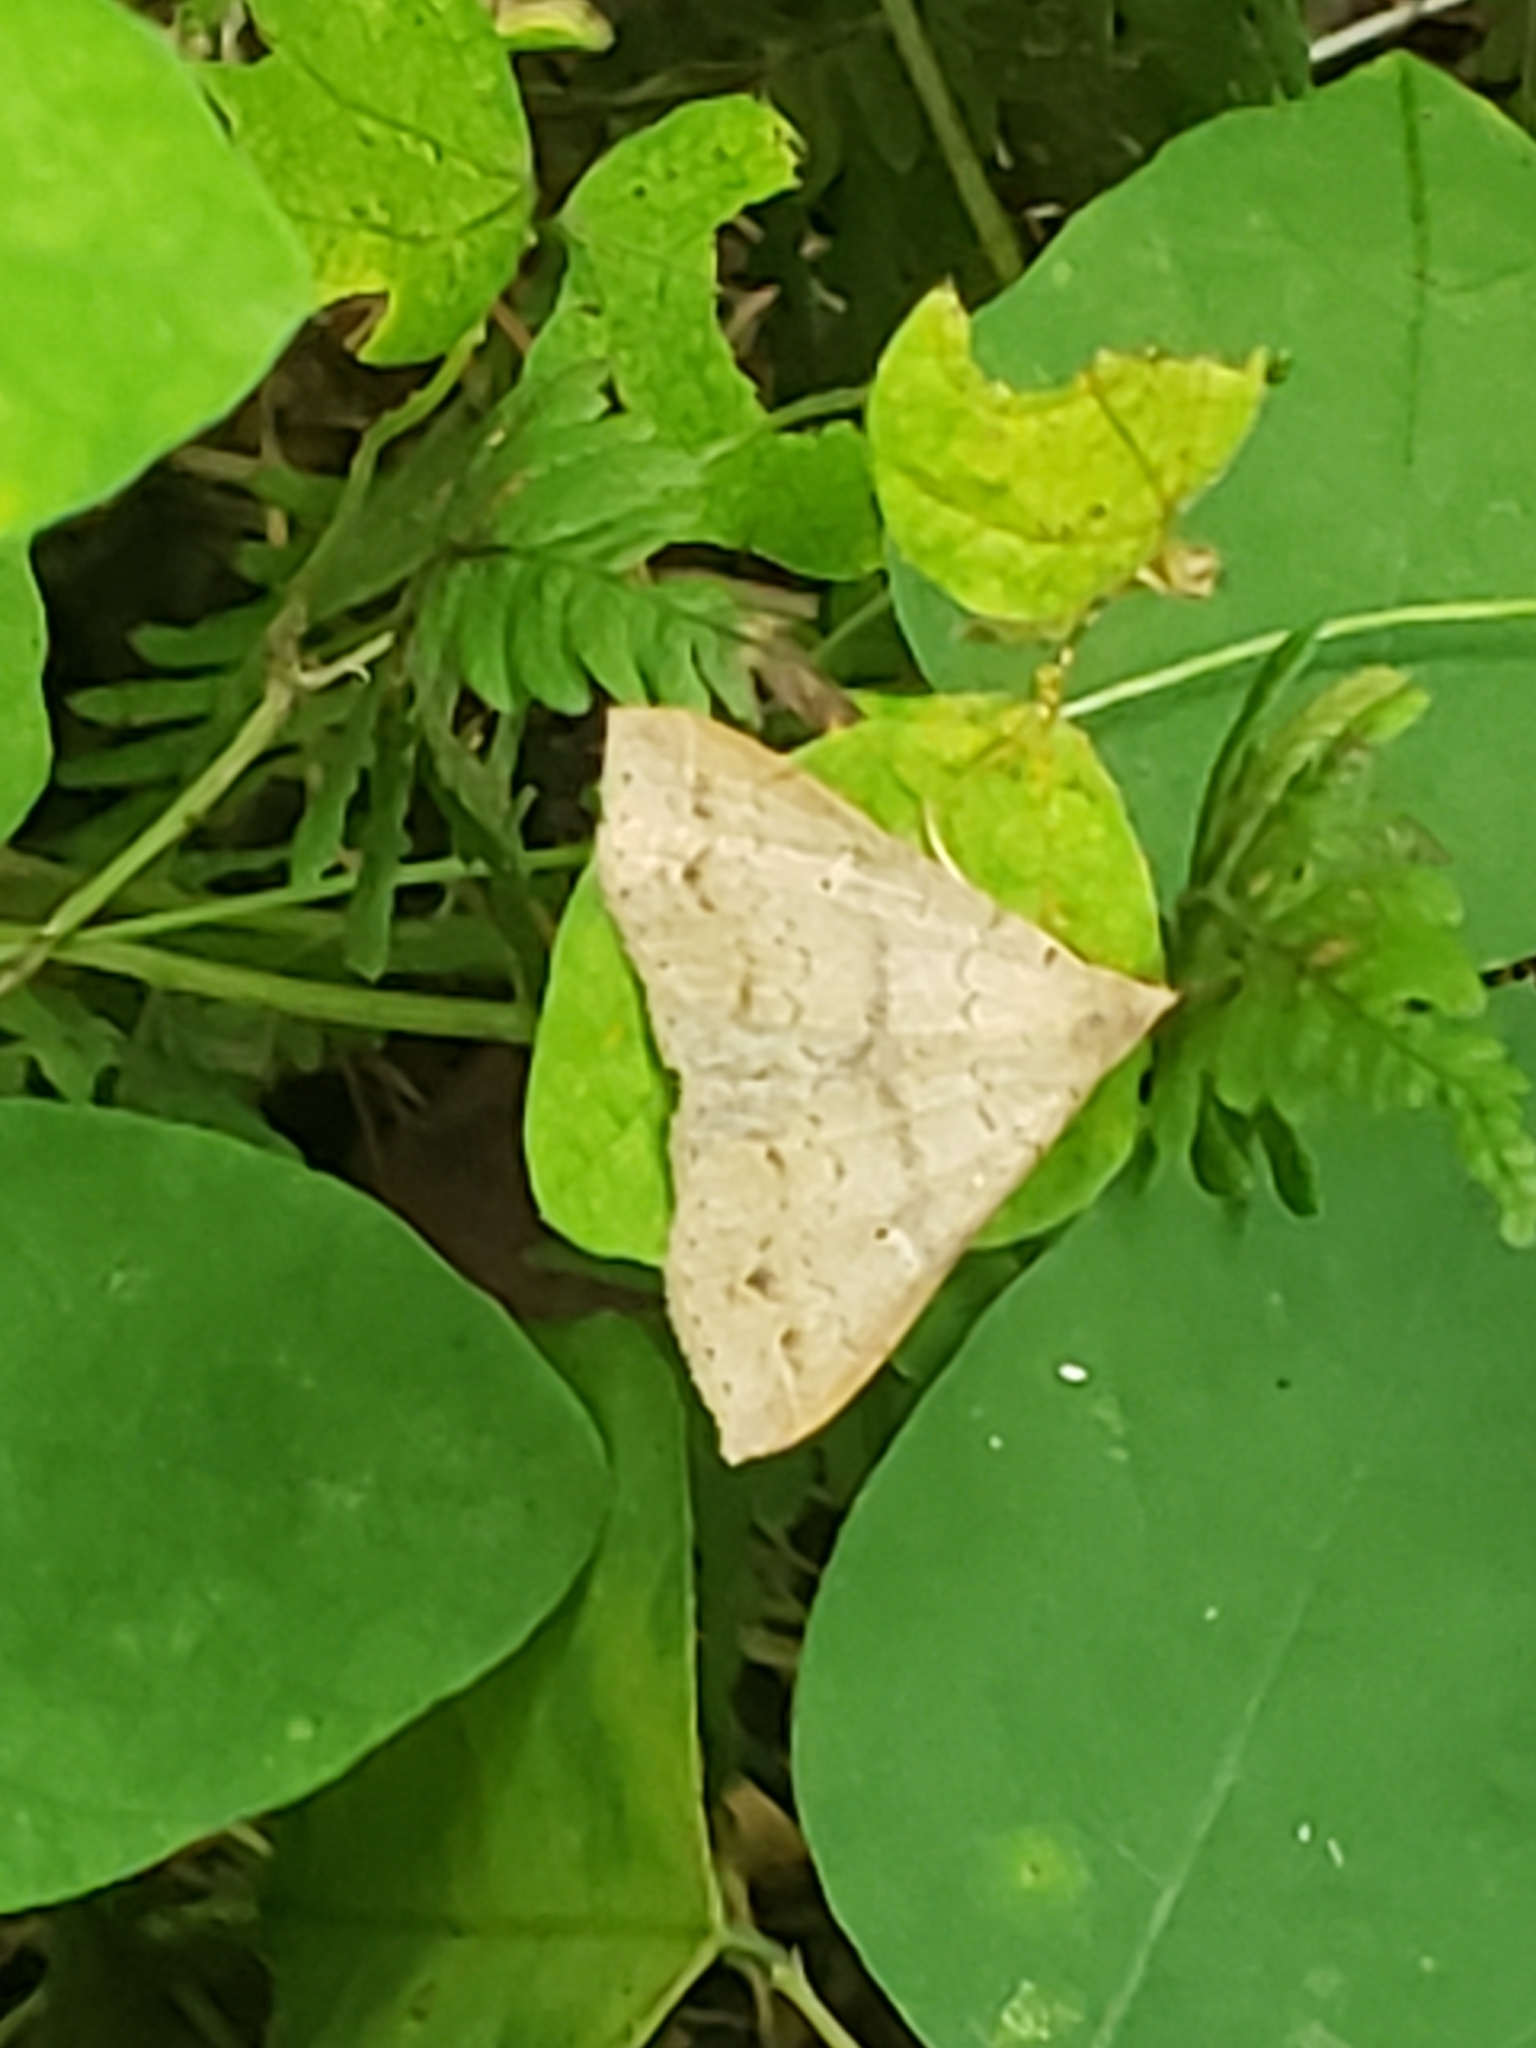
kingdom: Animalia
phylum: Arthropoda
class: Insecta
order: Lepidoptera
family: Erebidae
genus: Renia
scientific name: Renia adspergillus
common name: Speckled renia moth
